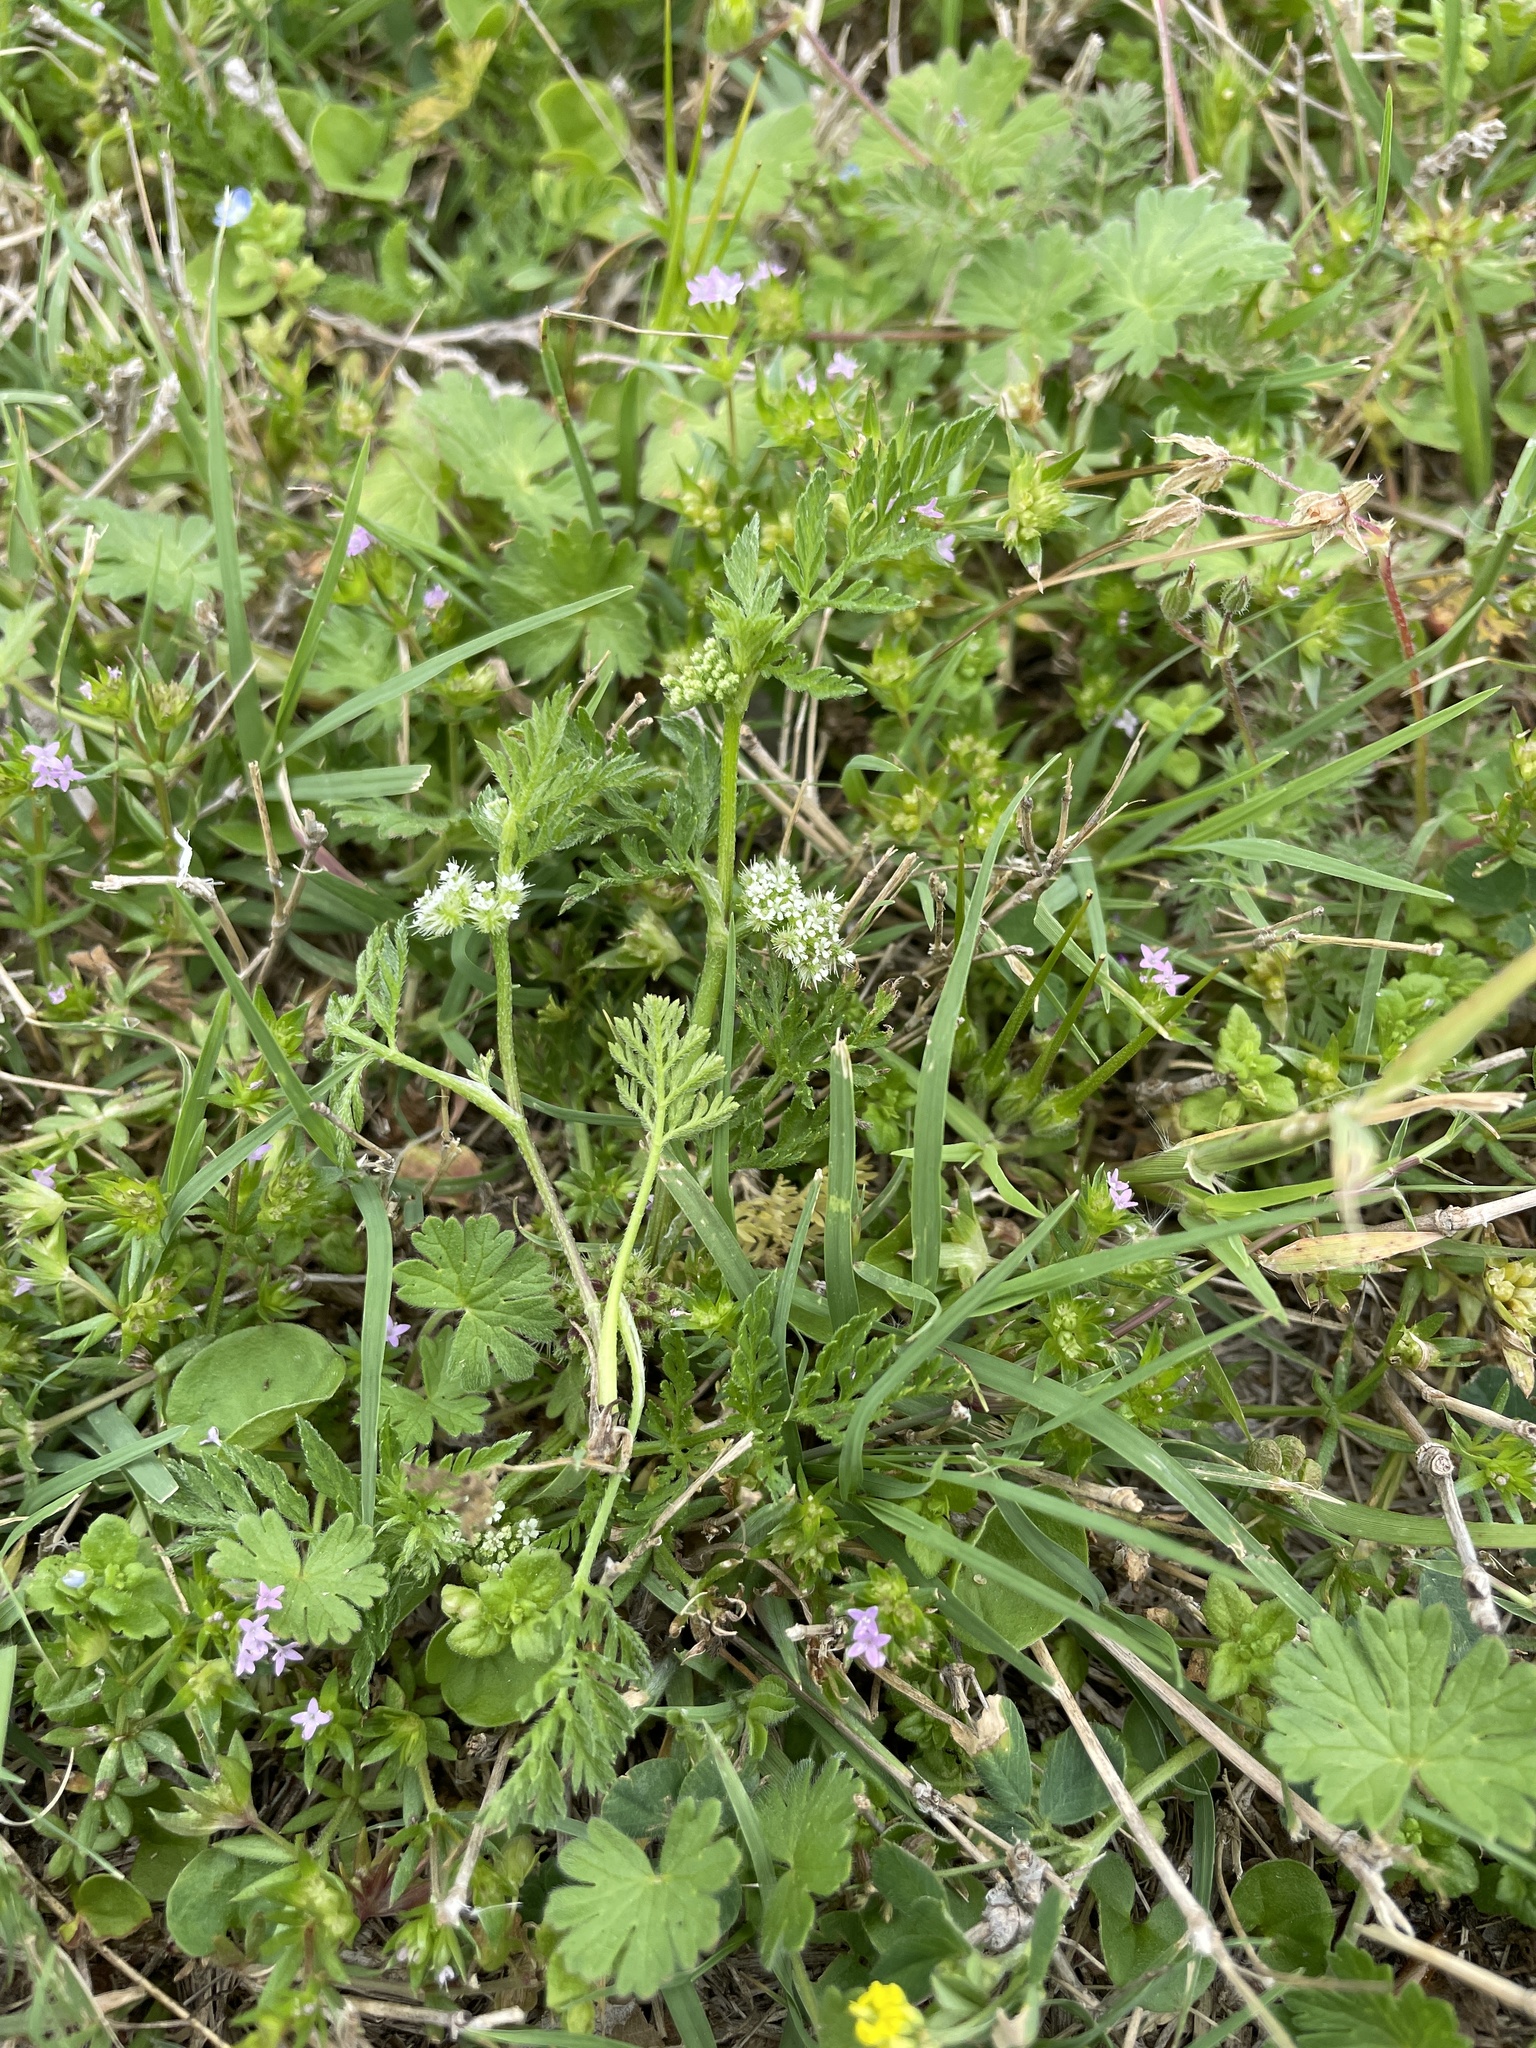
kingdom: Plantae
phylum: Tracheophyta
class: Magnoliopsida
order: Apiales
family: Apiaceae
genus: Torilis
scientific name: Torilis nodosa
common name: Knotted hedge-parsley
